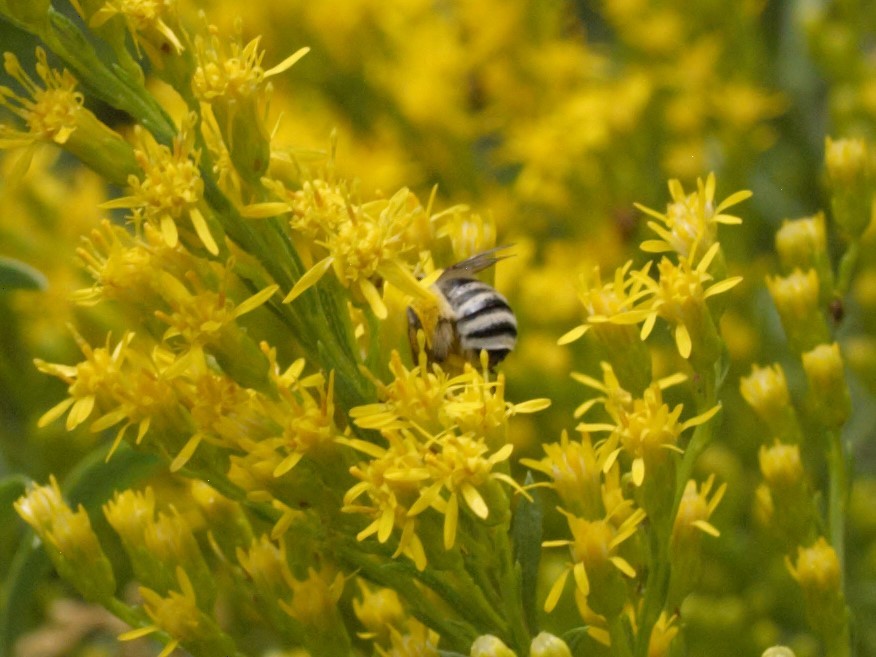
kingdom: Animalia
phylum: Arthropoda
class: Insecta
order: Hymenoptera
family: Apidae
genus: Melissodes
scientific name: Melissodes
